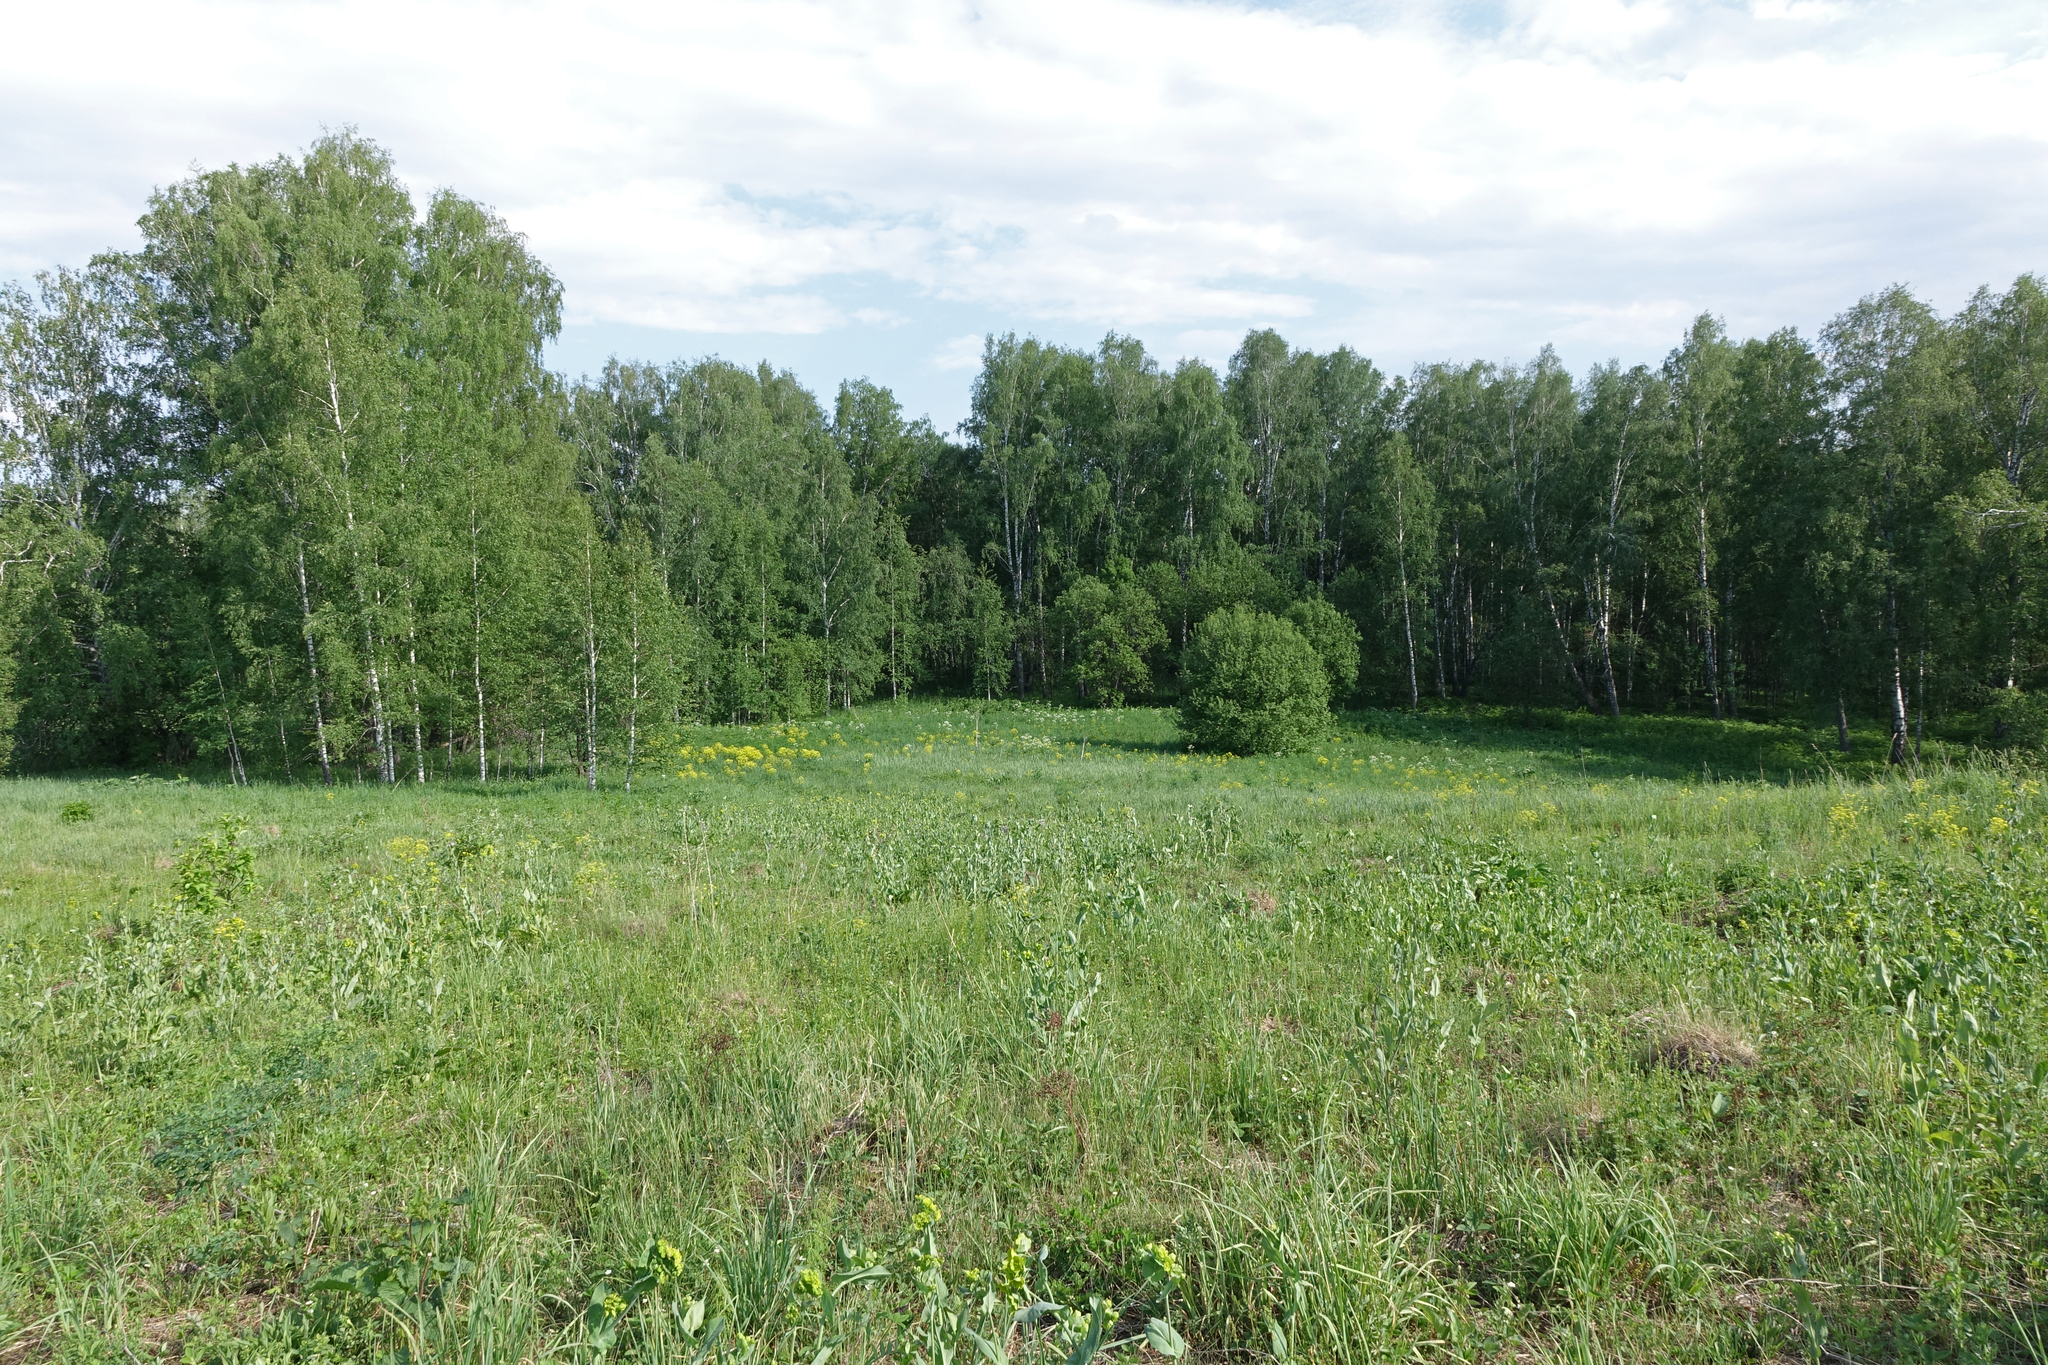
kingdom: Plantae
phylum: Tracheophyta
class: Magnoliopsida
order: Fagales
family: Betulaceae
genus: Betula
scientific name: Betula pendula
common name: Silver birch
